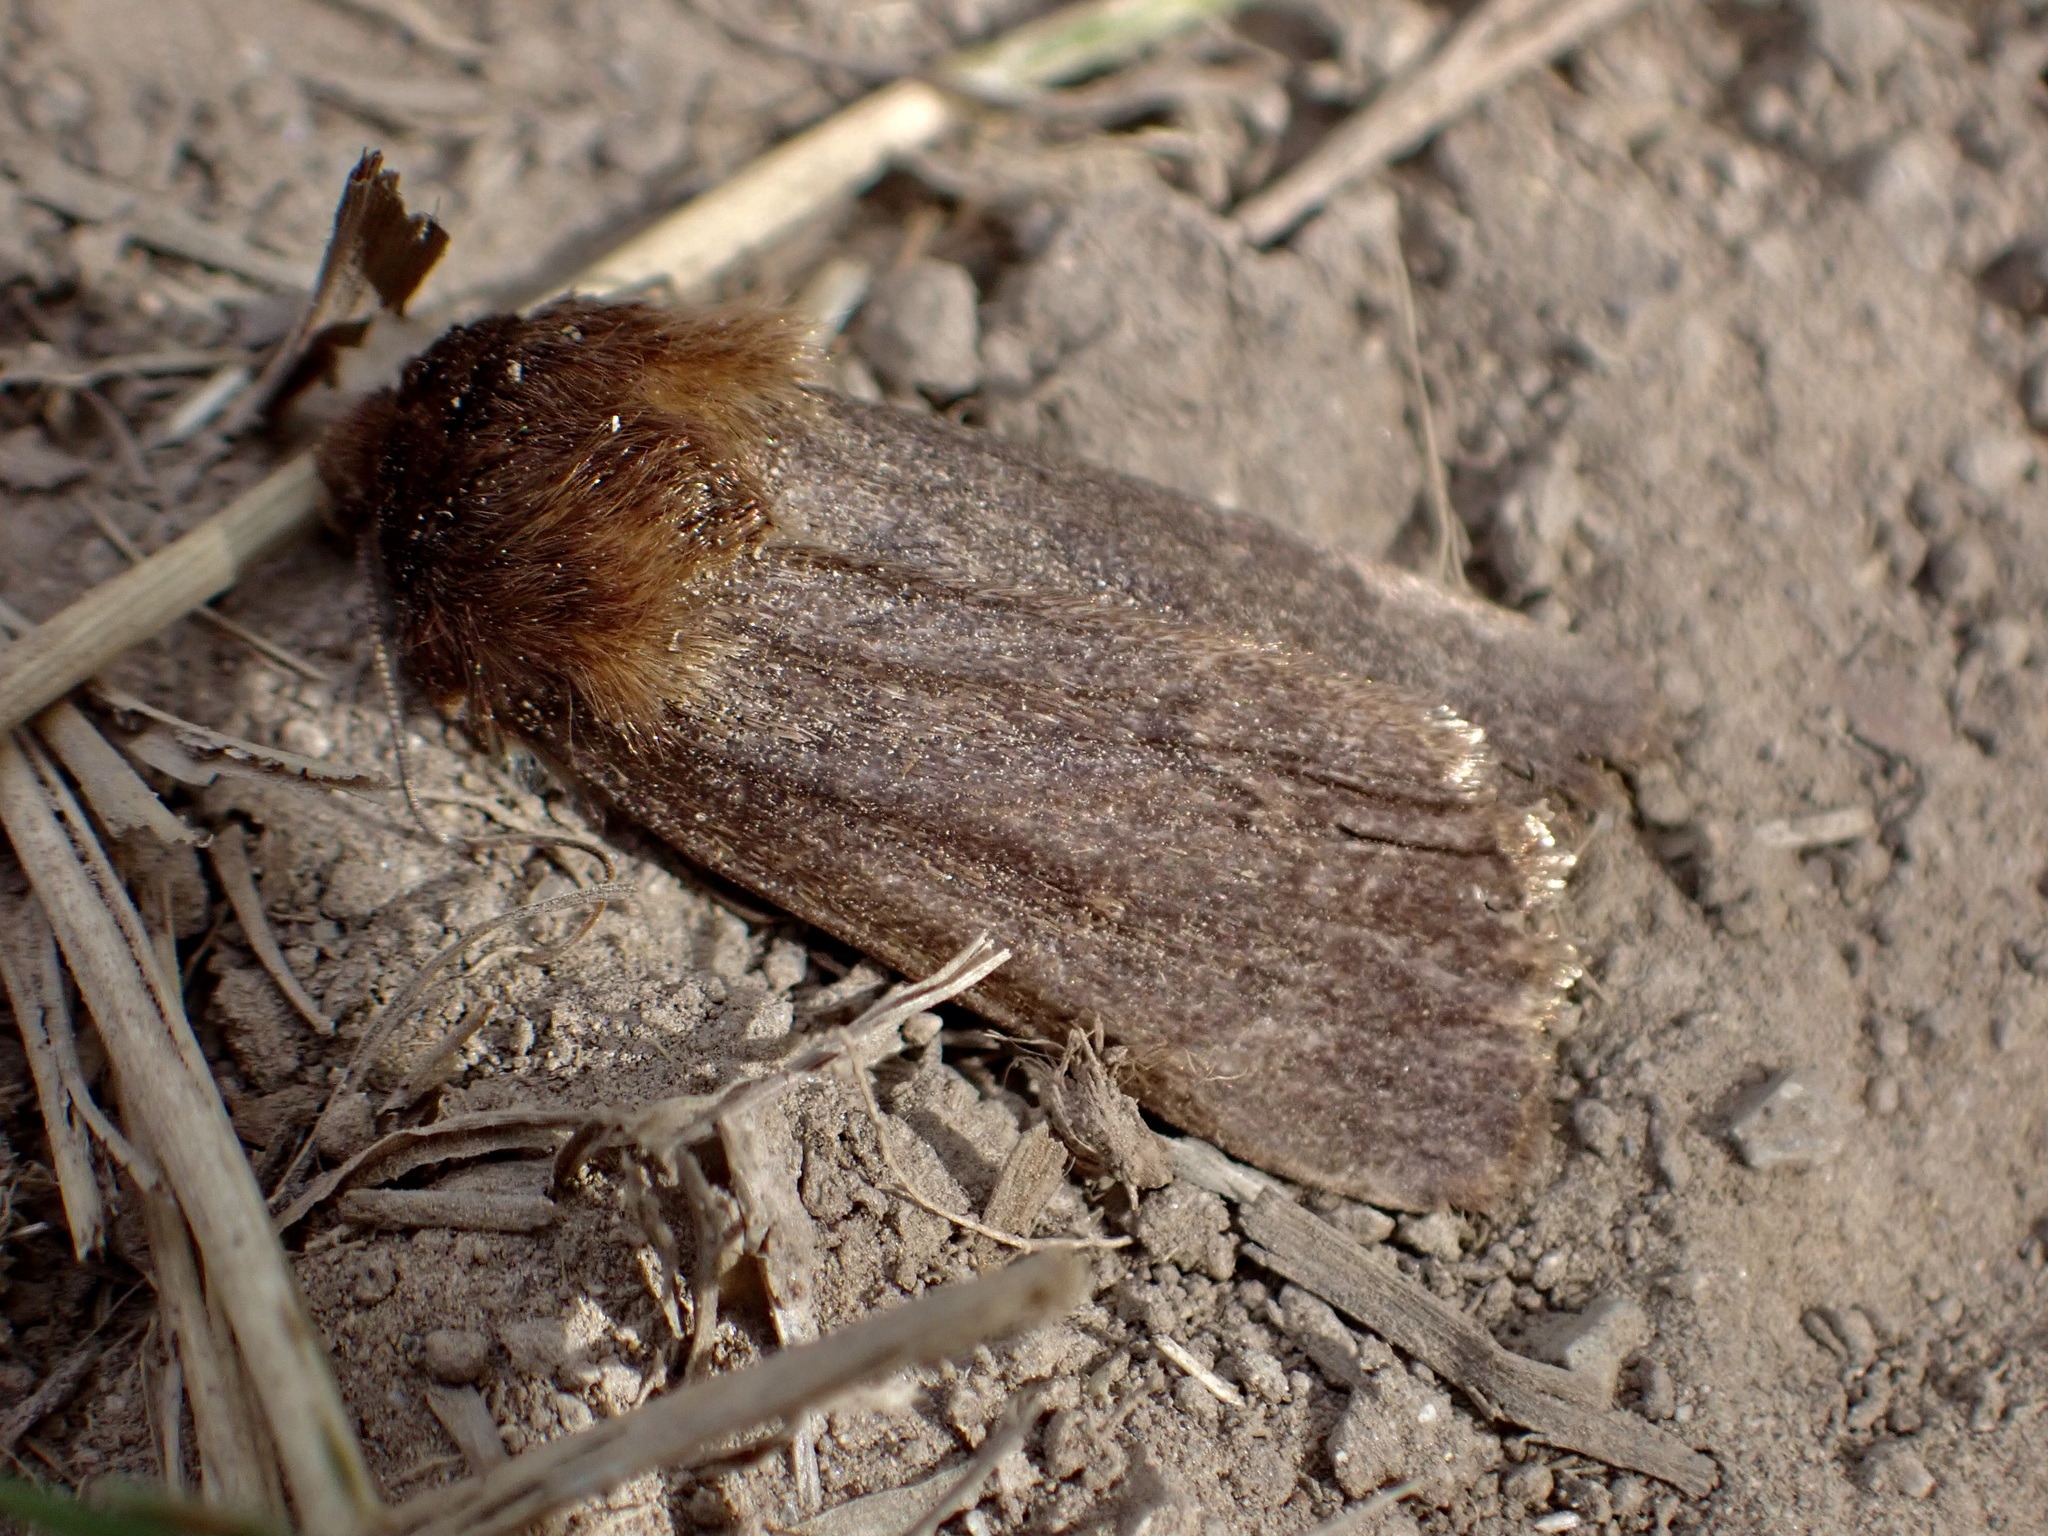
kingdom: Animalia
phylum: Arthropoda
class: Insecta
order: Lepidoptera
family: Noctuidae
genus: Bityla
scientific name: Bityla defigurata
